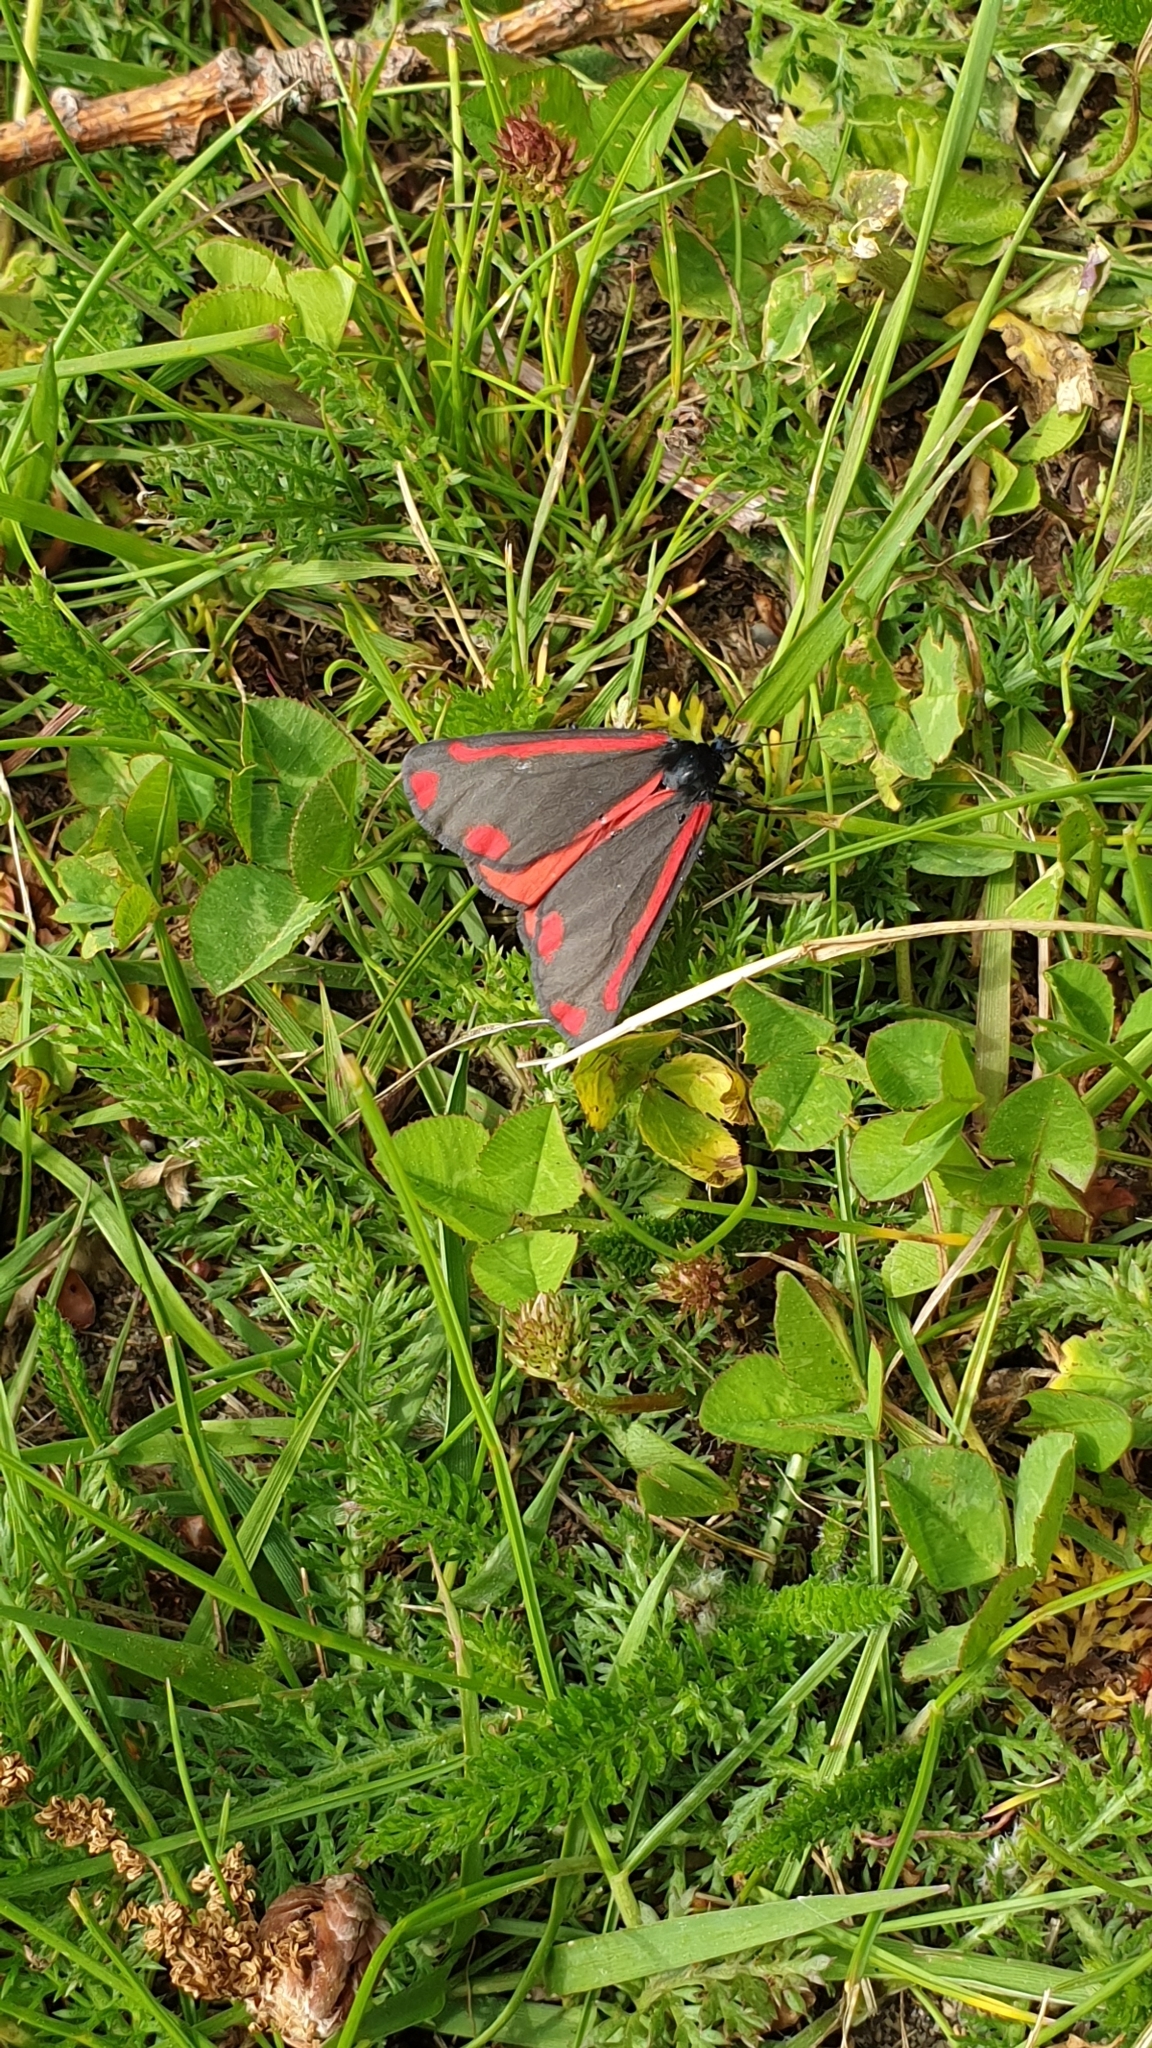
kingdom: Animalia
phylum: Arthropoda
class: Insecta
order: Lepidoptera
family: Erebidae
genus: Tyria
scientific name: Tyria jacobaeae
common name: Cinnabar
